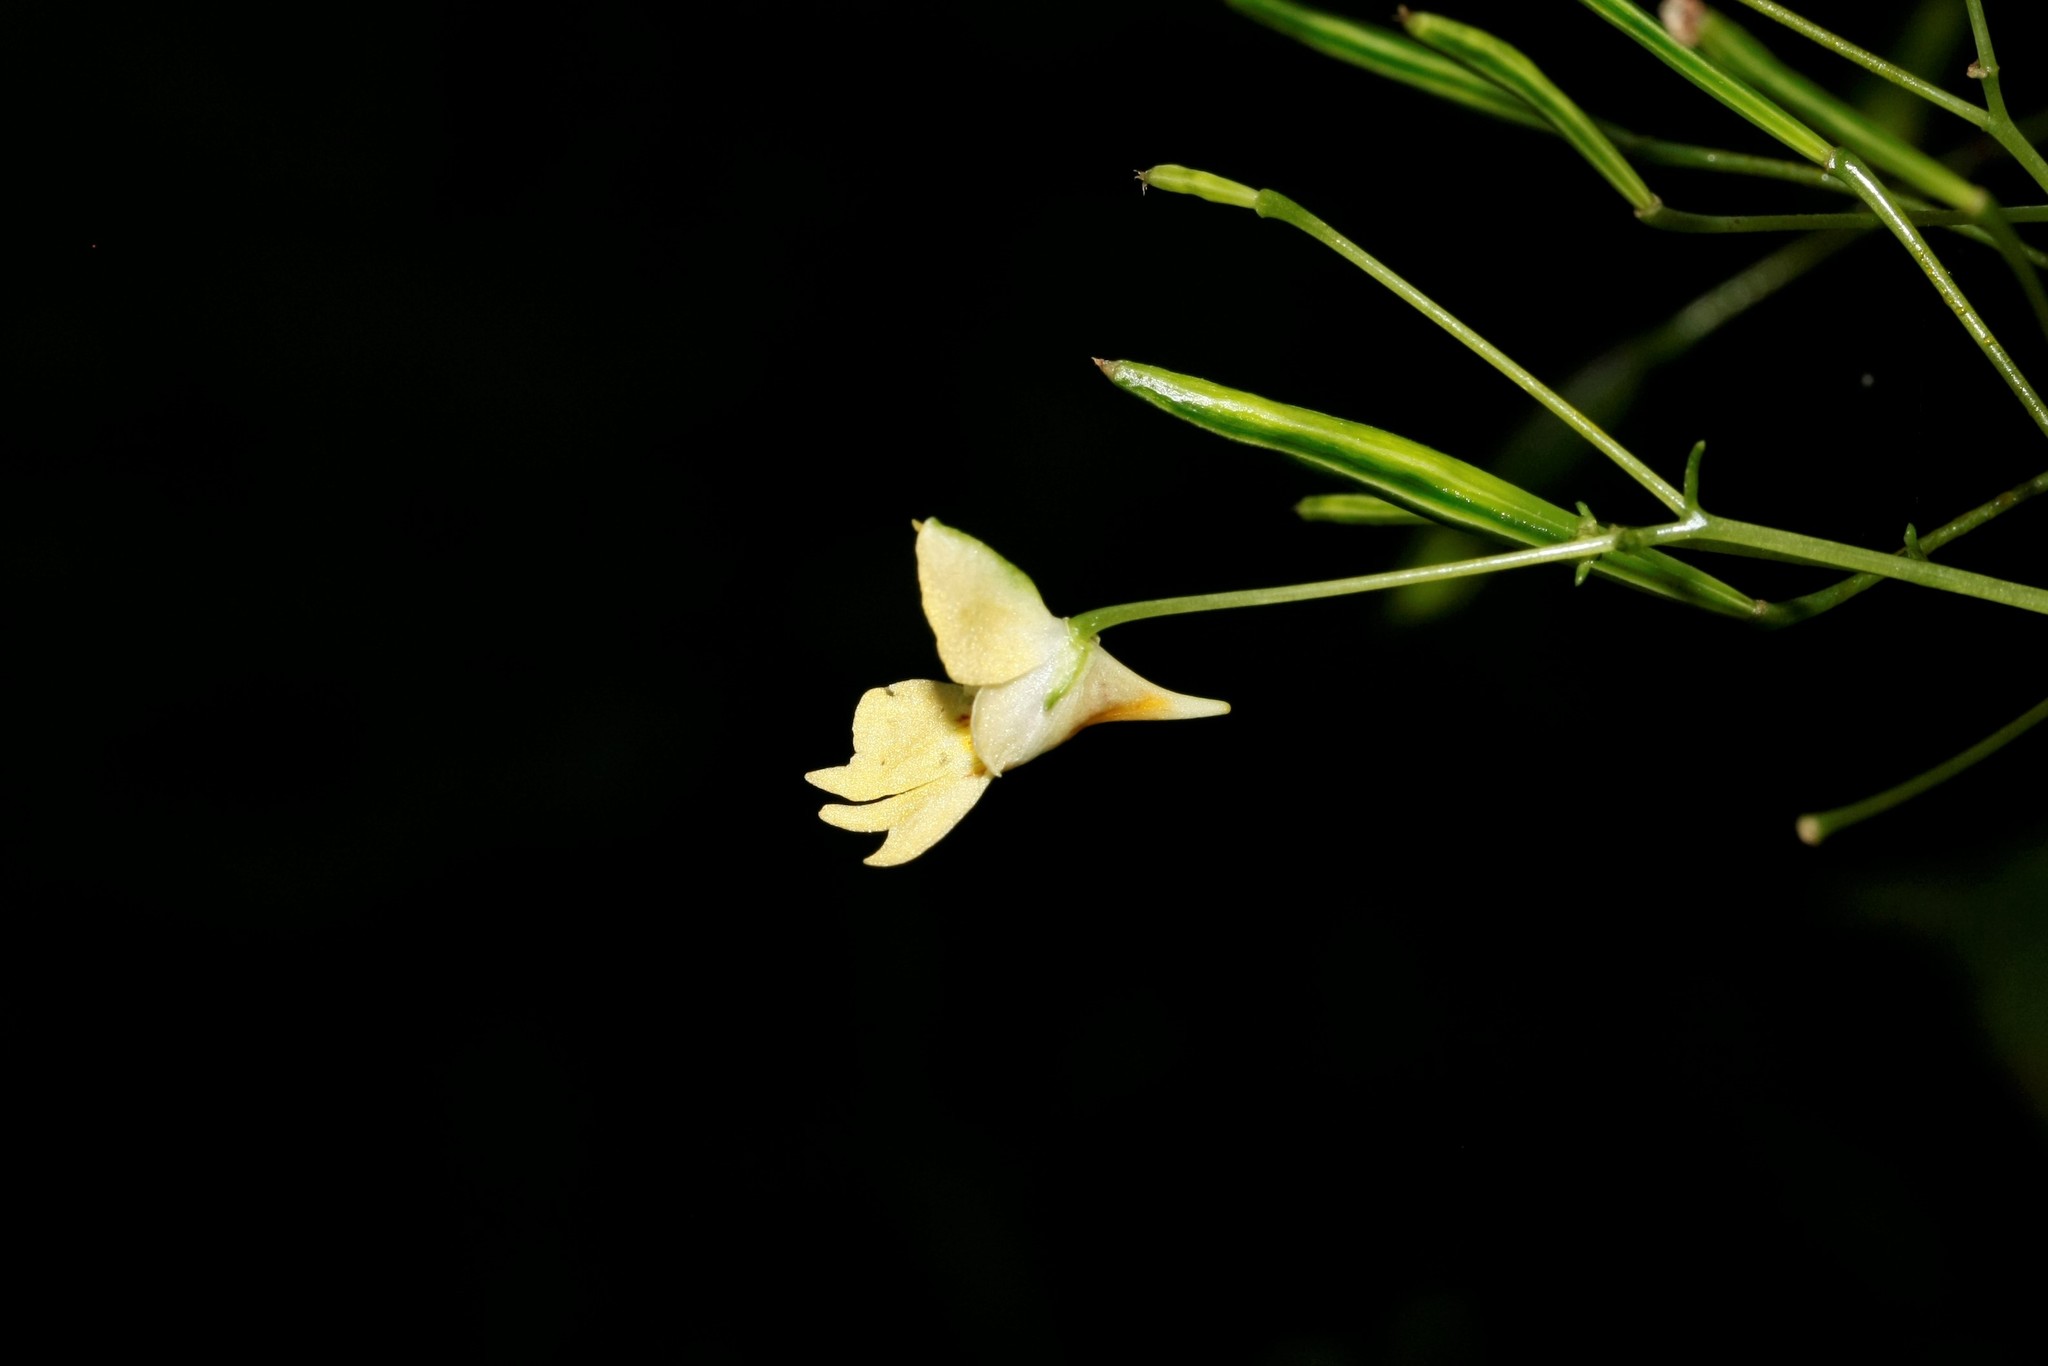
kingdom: Plantae
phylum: Tracheophyta
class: Magnoliopsida
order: Ericales
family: Balsaminaceae
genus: Impatiens
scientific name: Impatiens parviflora
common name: Small balsam
